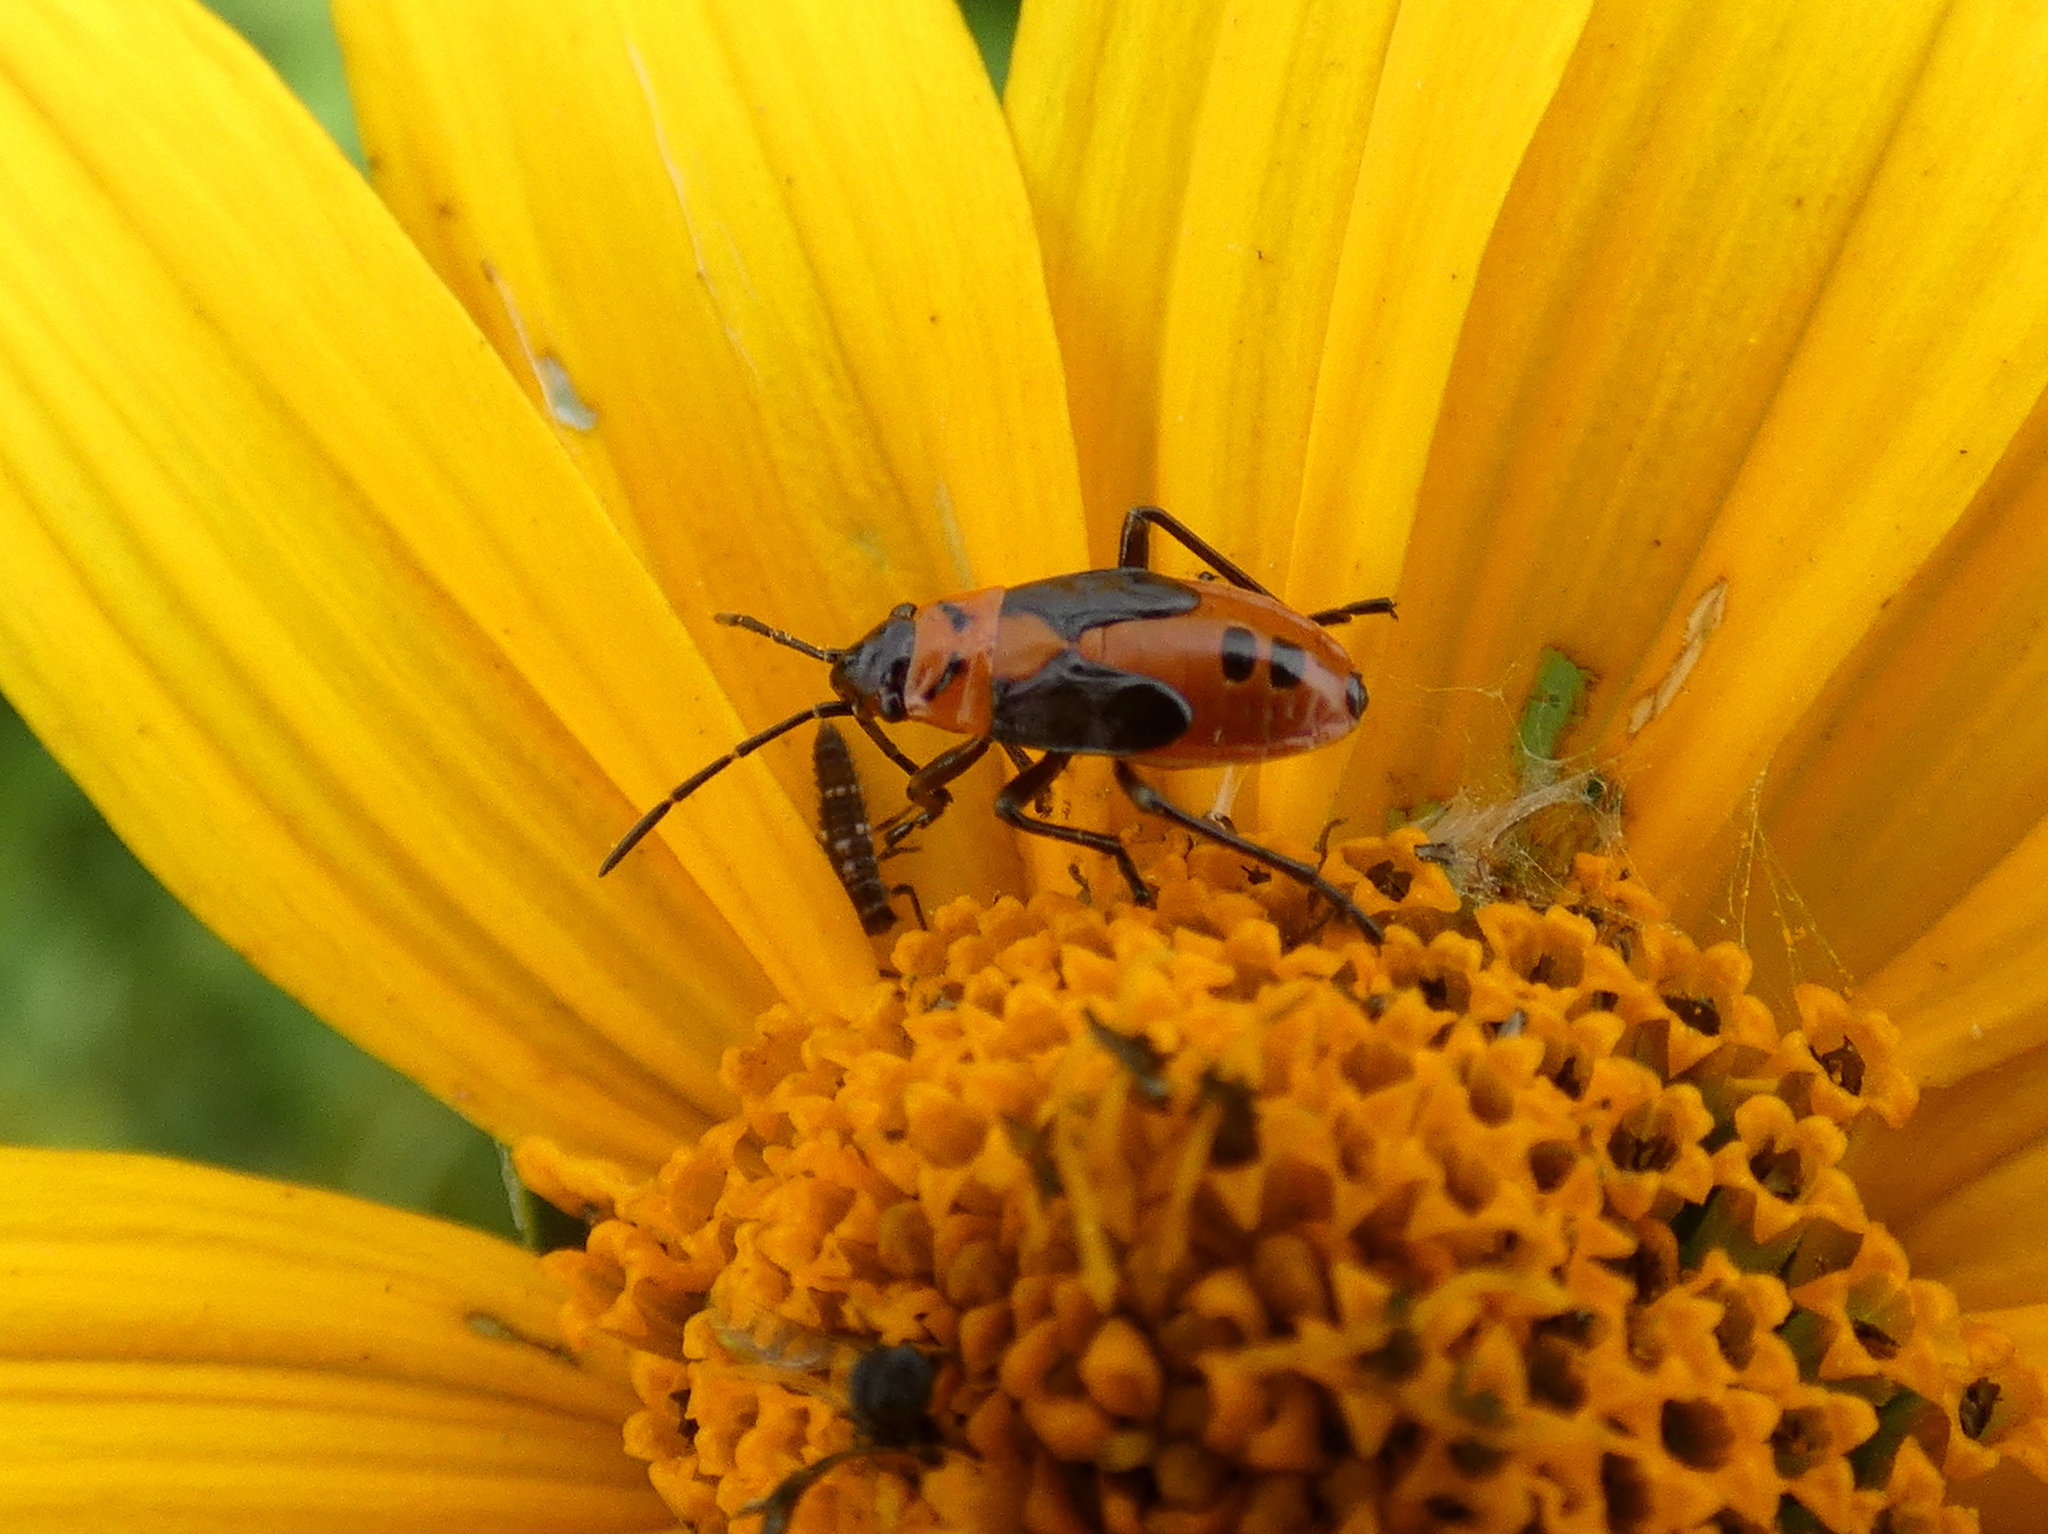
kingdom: Animalia
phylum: Arthropoda
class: Insecta
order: Hemiptera
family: Lygaeidae
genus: Lygaeus
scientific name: Lygaeus turcicus
